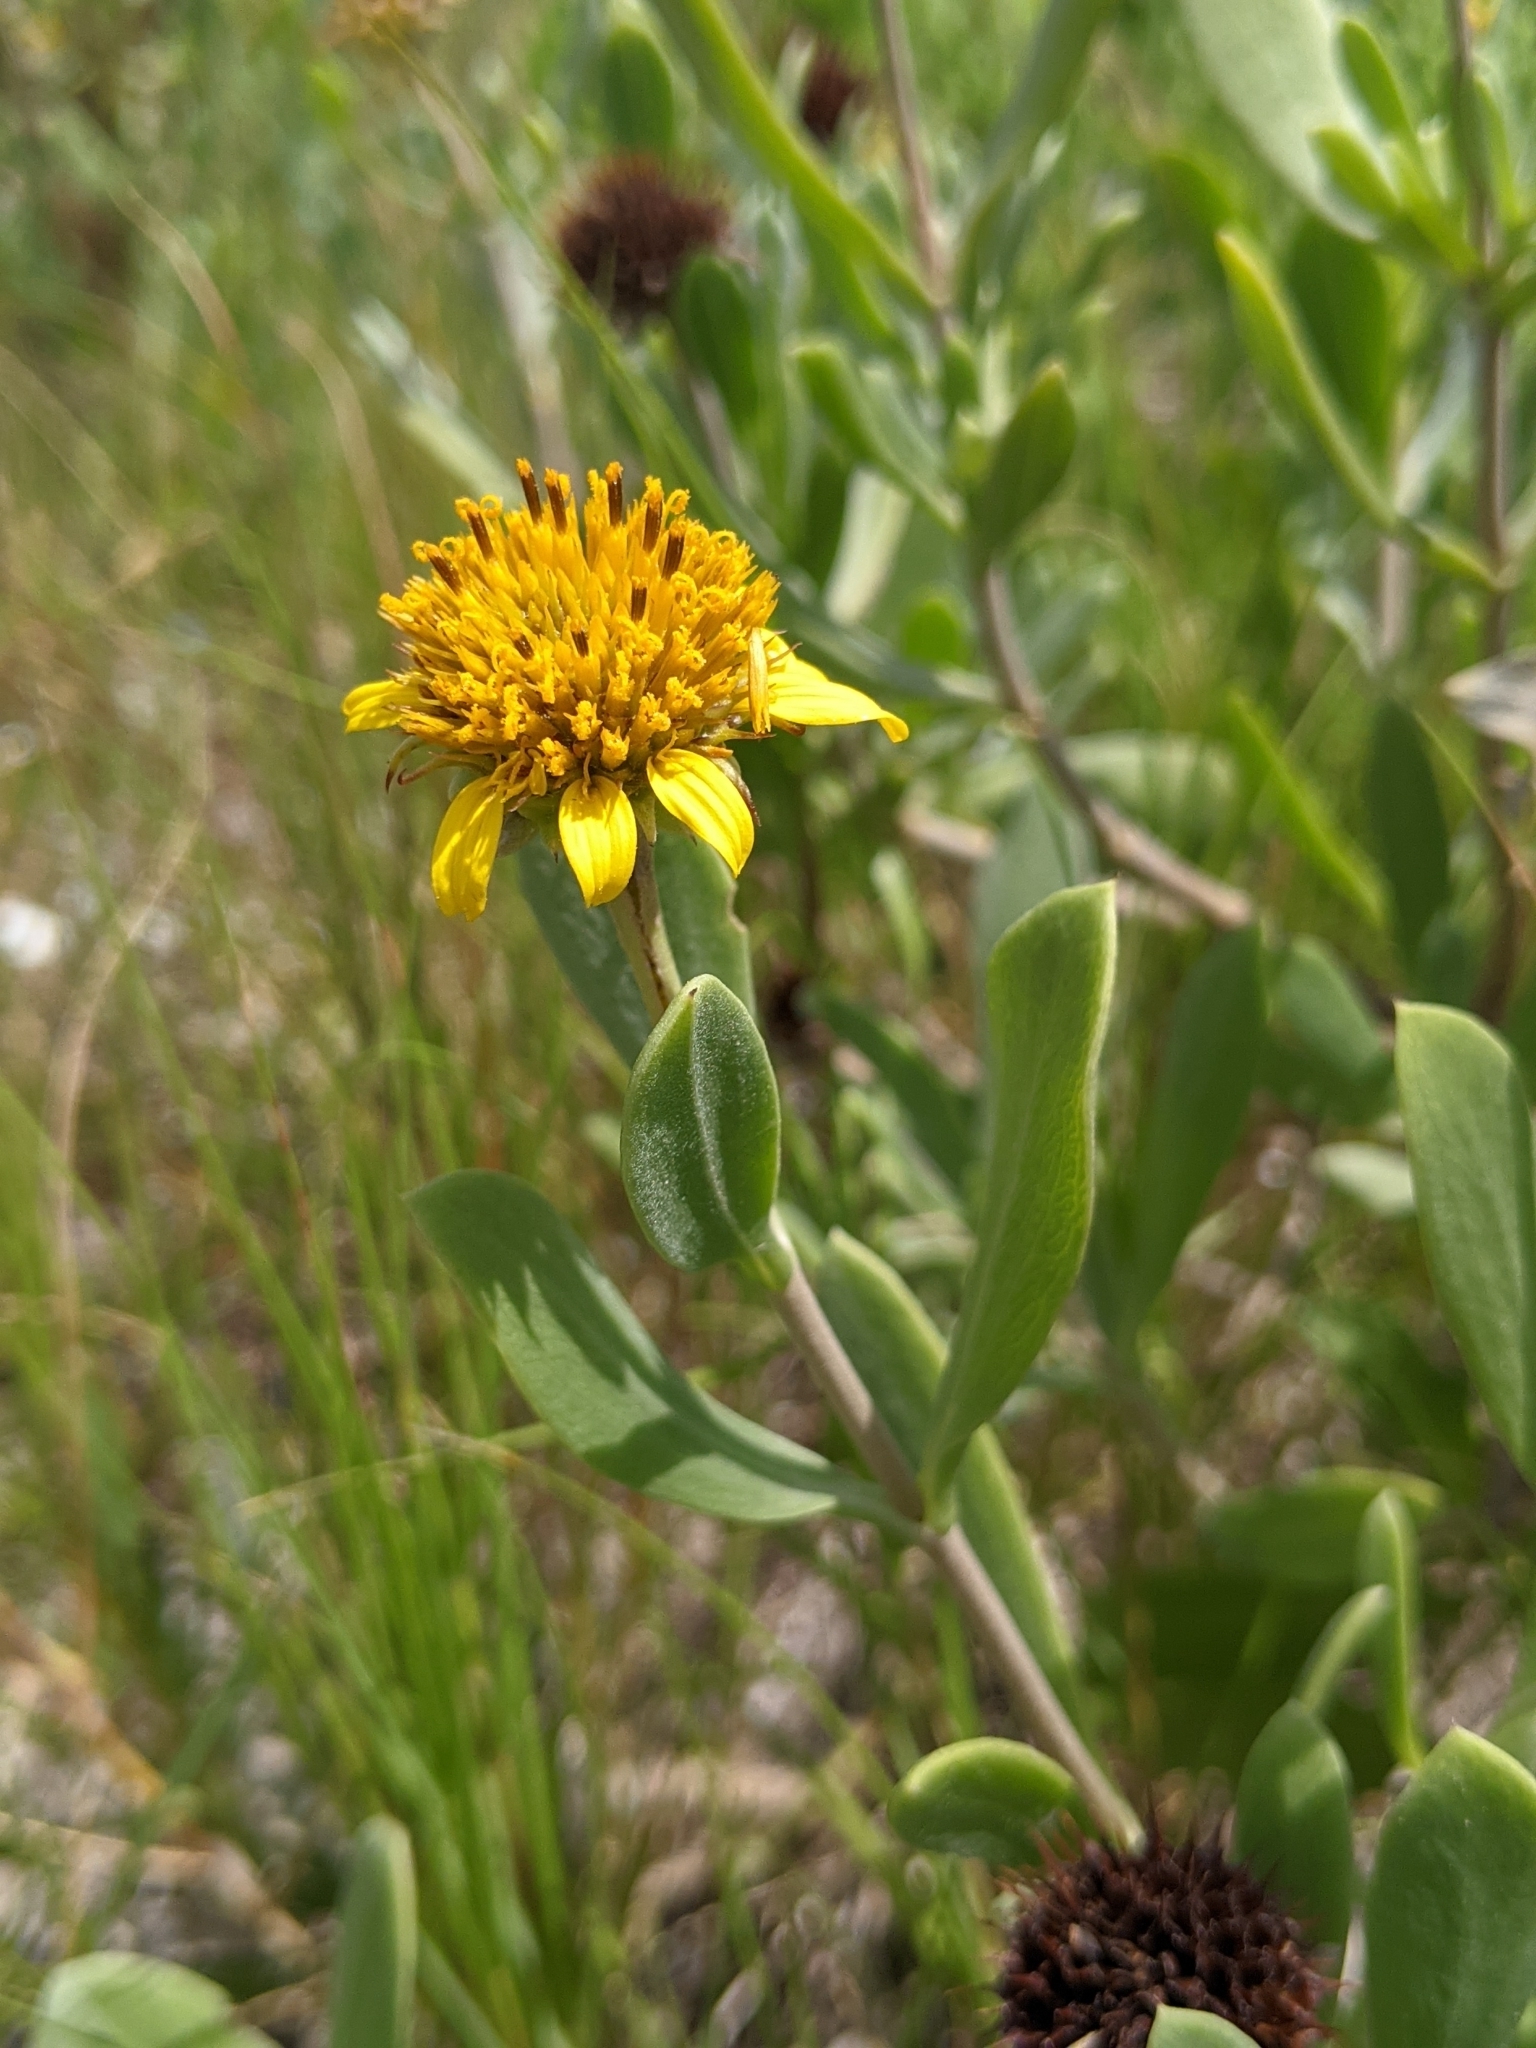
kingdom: Plantae
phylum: Tracheophyta
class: Magnoliopsida
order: Asterales
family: Asteraceae
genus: Borrichia
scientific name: Borrichia frutescens
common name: Sea oxeye
